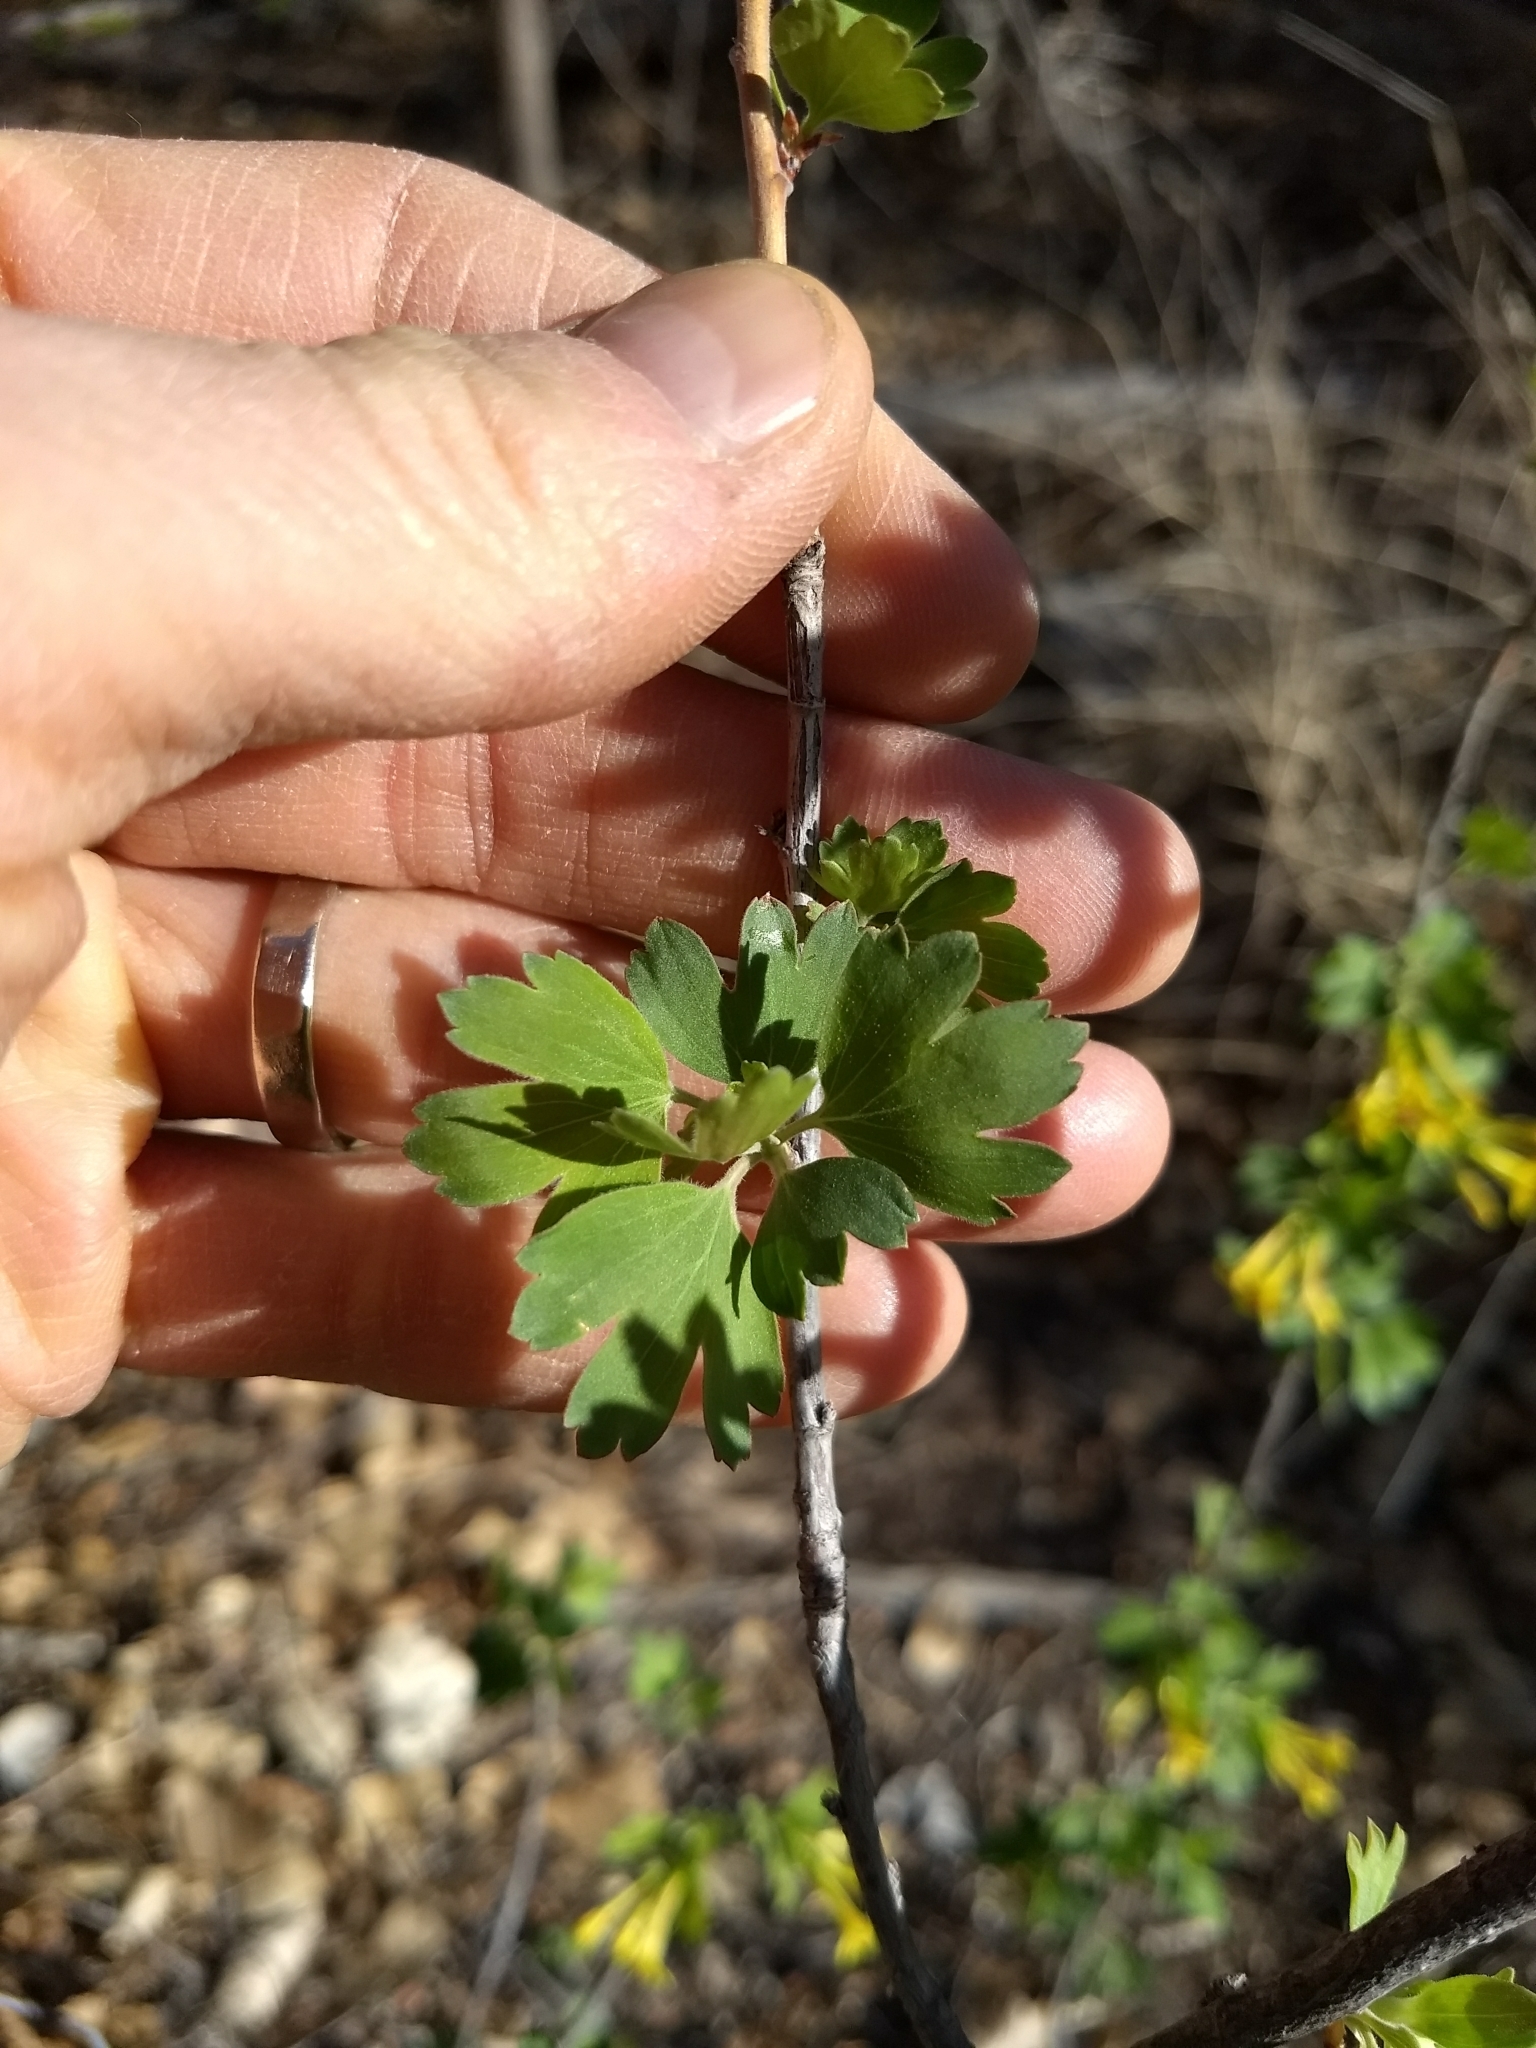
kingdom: Plantae
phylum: Tracheophyta
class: Magnoliopsida
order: Saxifragales
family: Grossulariaceae
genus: Ribes
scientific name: Ribes aureum
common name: Golden currant
